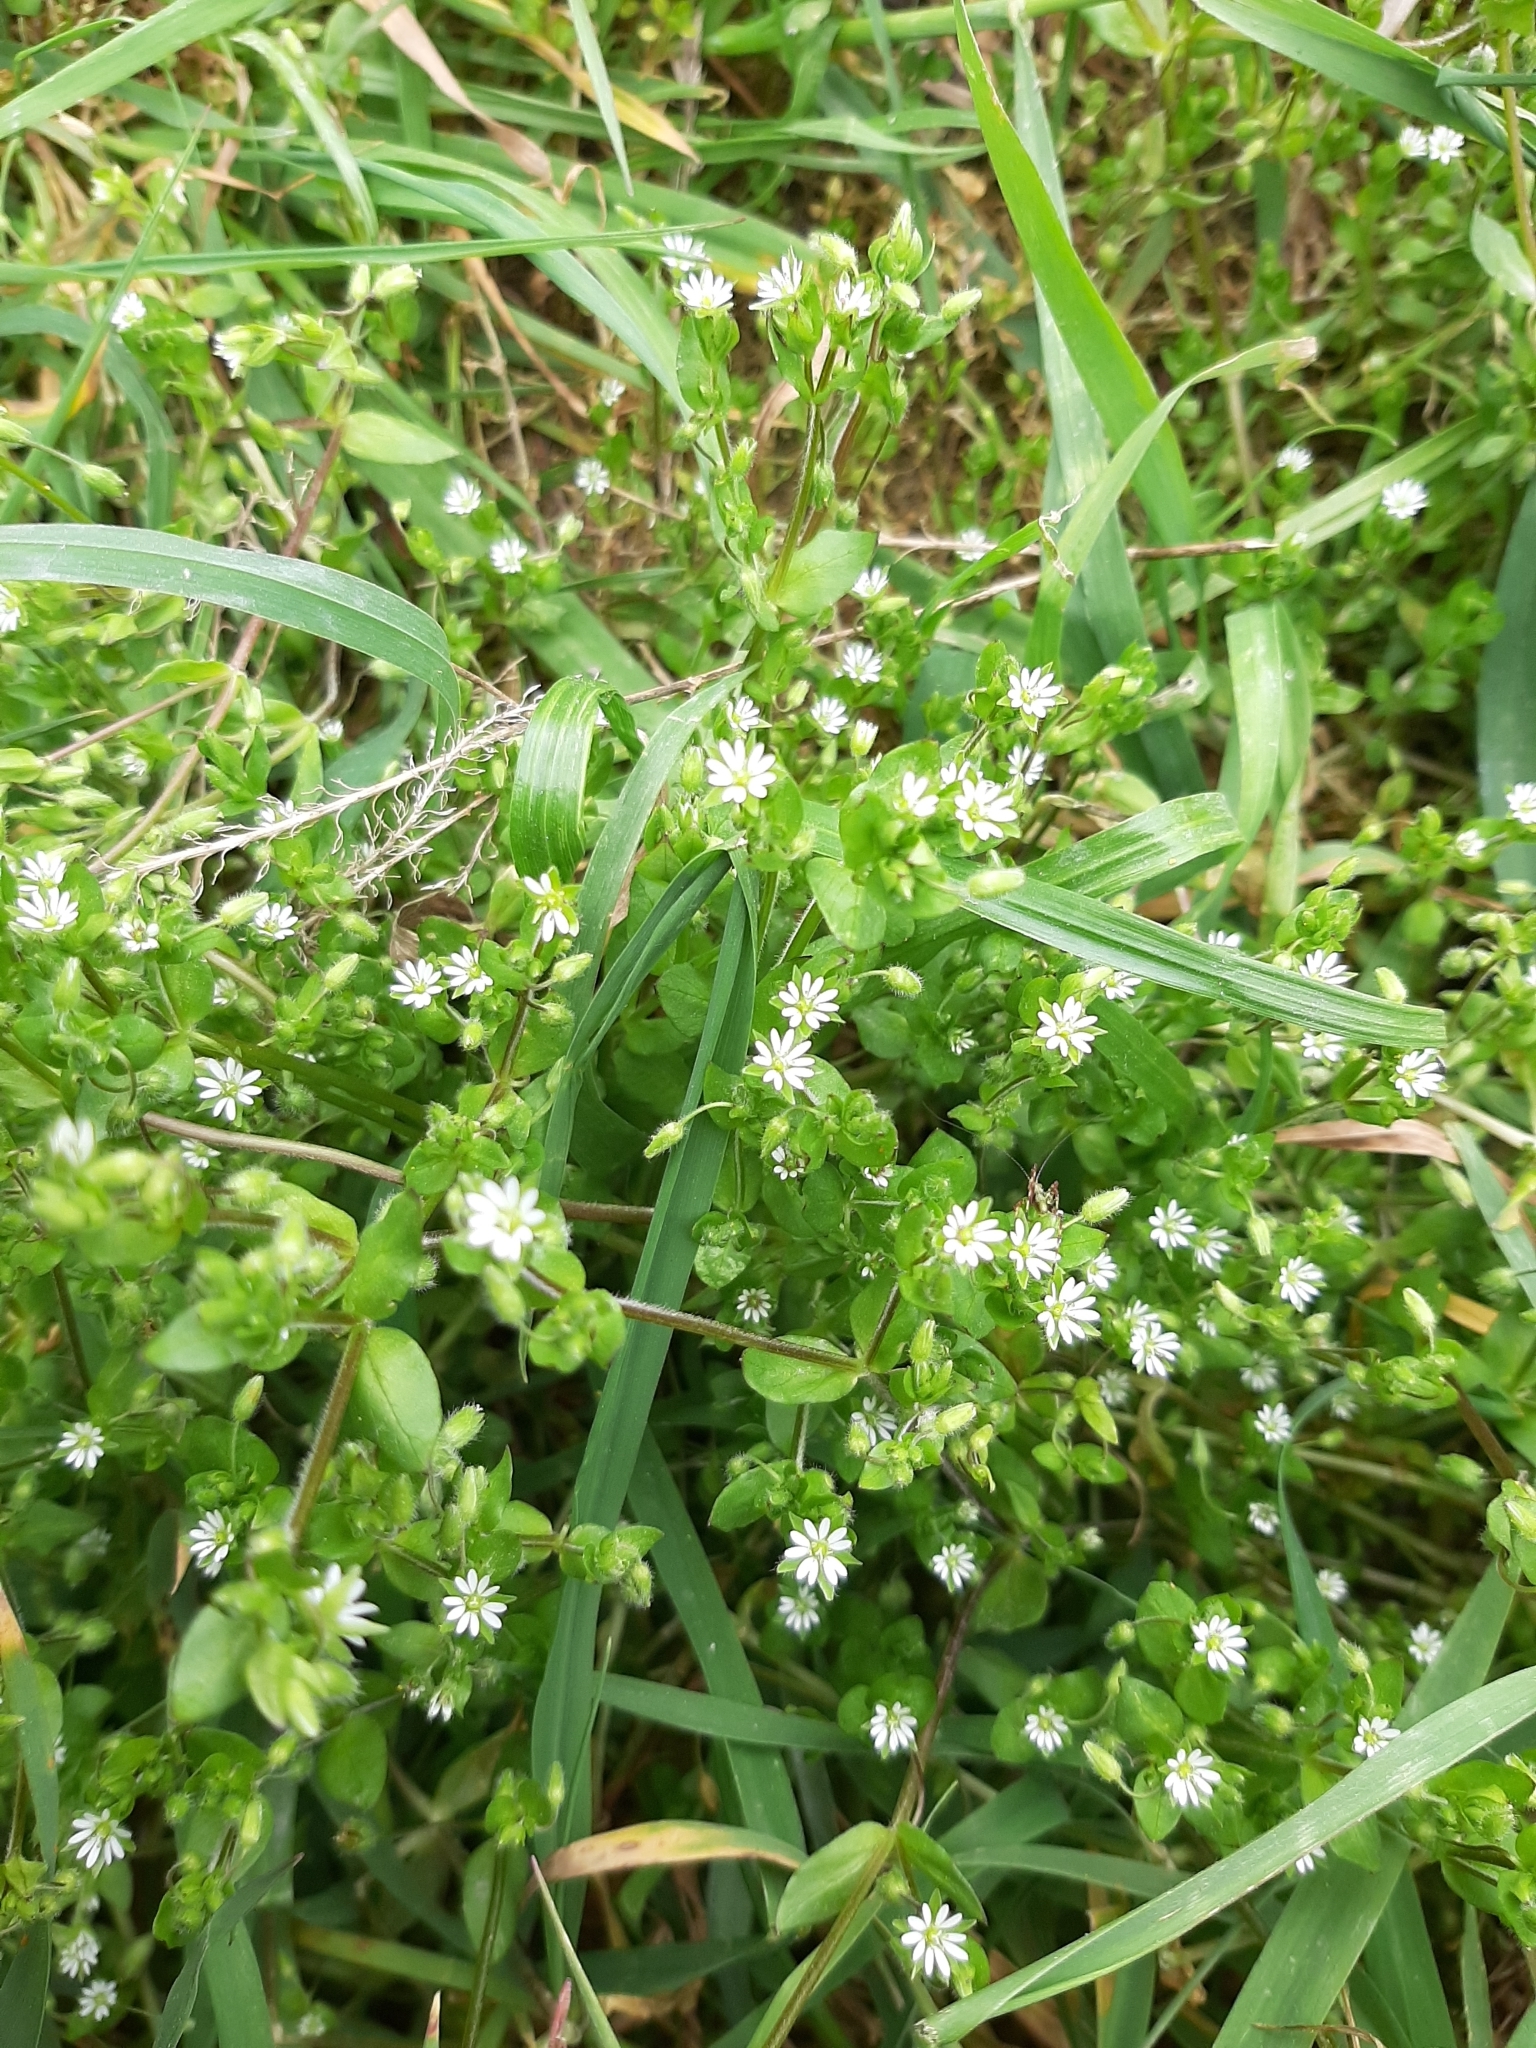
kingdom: Plantae
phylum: Tracheophyta
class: Magnoliopsida
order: Caryophyllales
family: Caryophyllaceae
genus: Stellaria
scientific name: Stellaria media
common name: Common chickweed
